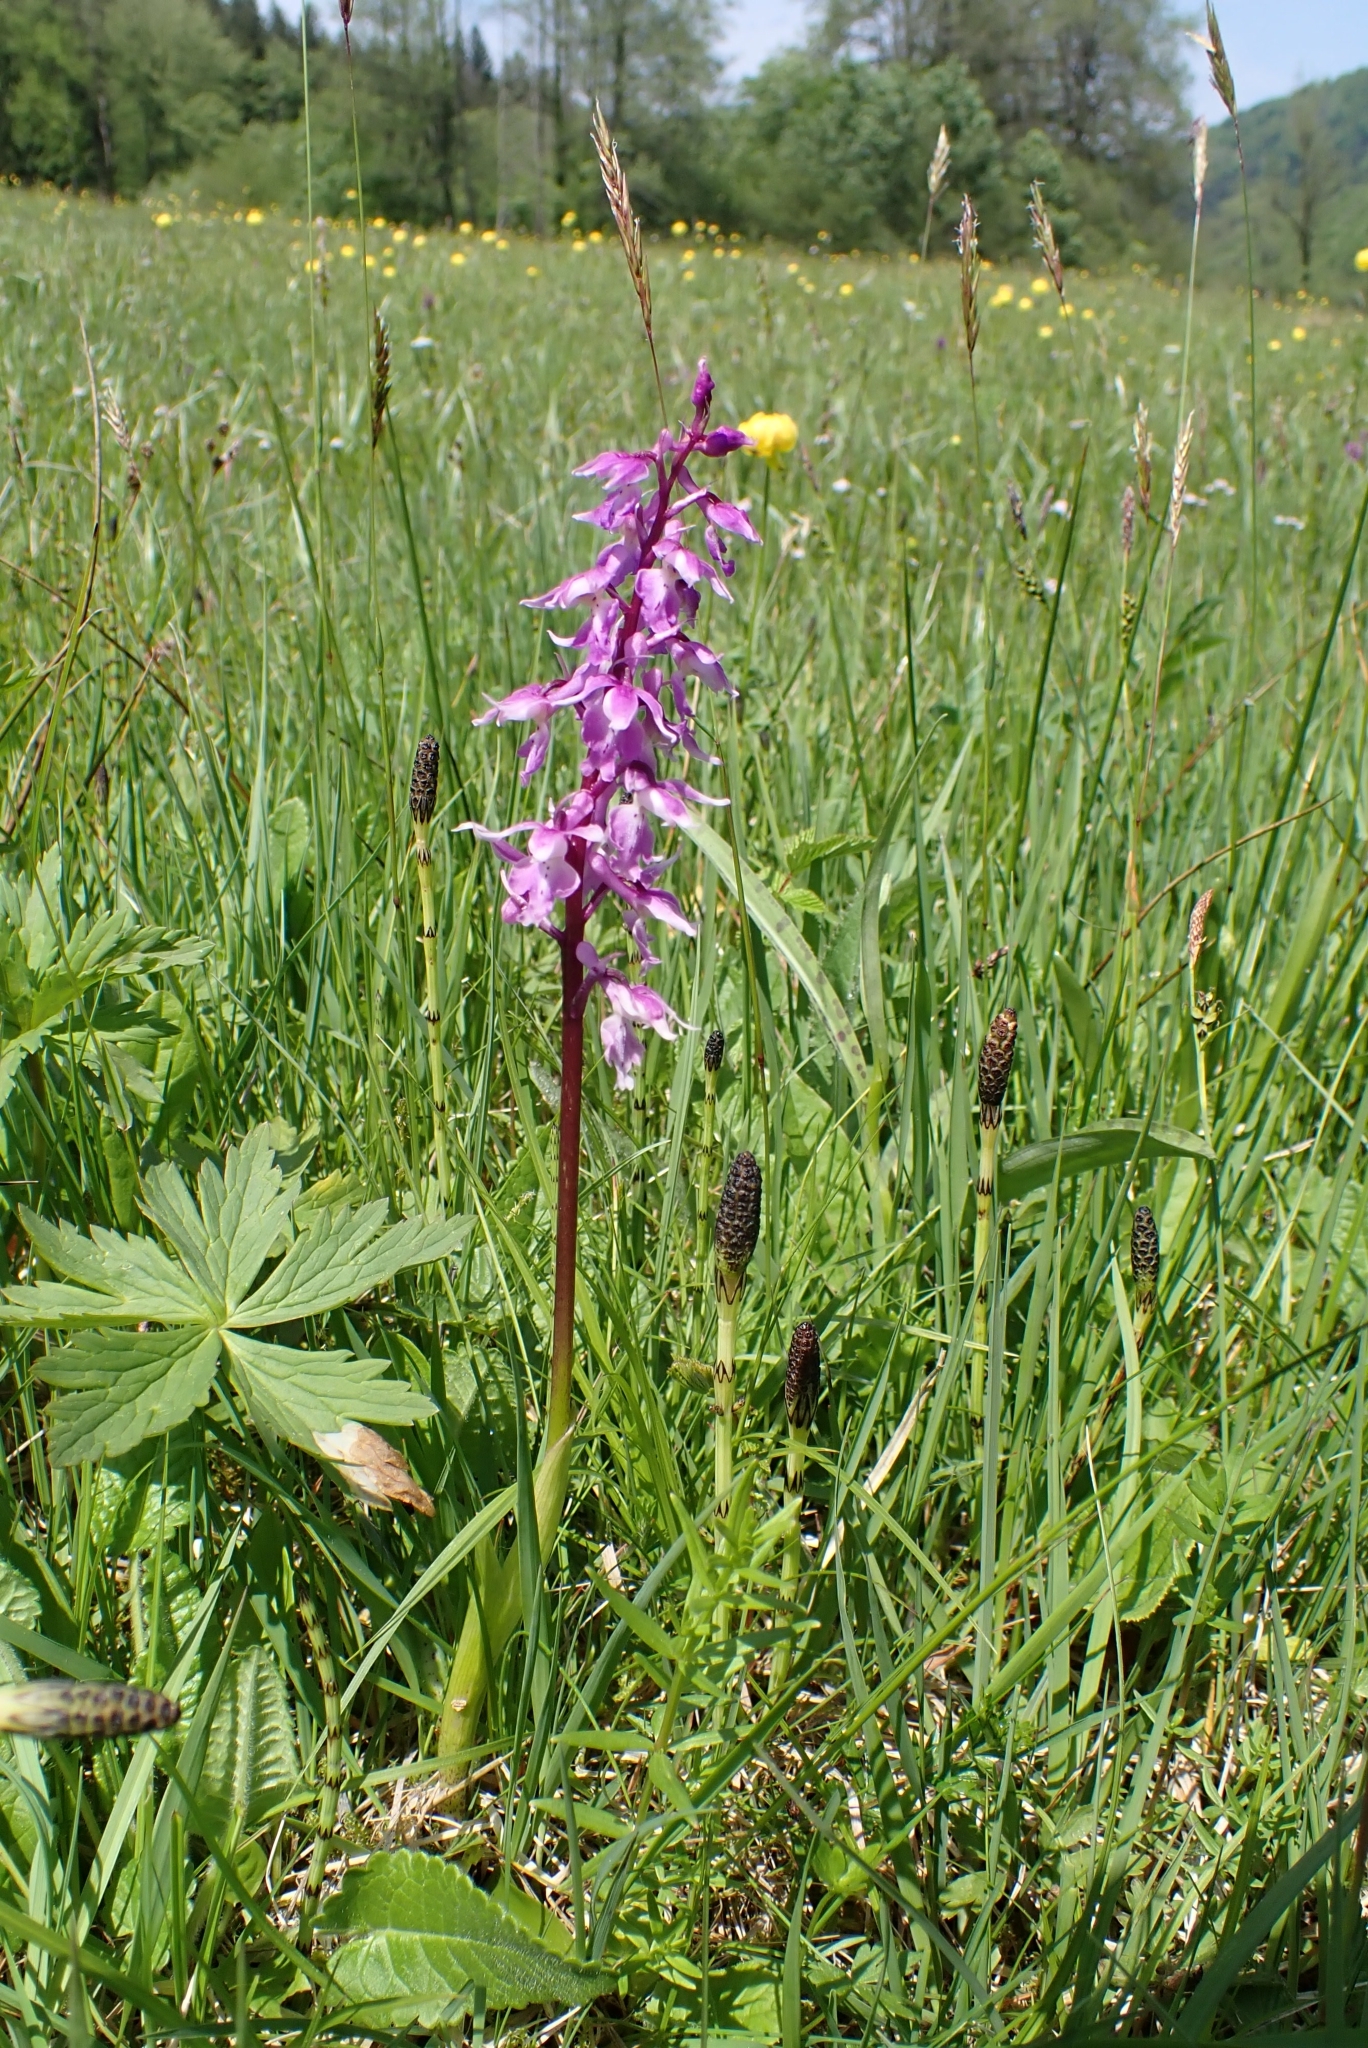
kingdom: Plantae
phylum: Tracheophyta
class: Liliopsida
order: Asparagales
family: Orchidaceae
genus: Orchis
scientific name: Orchis mascula
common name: Early-purple orchid
